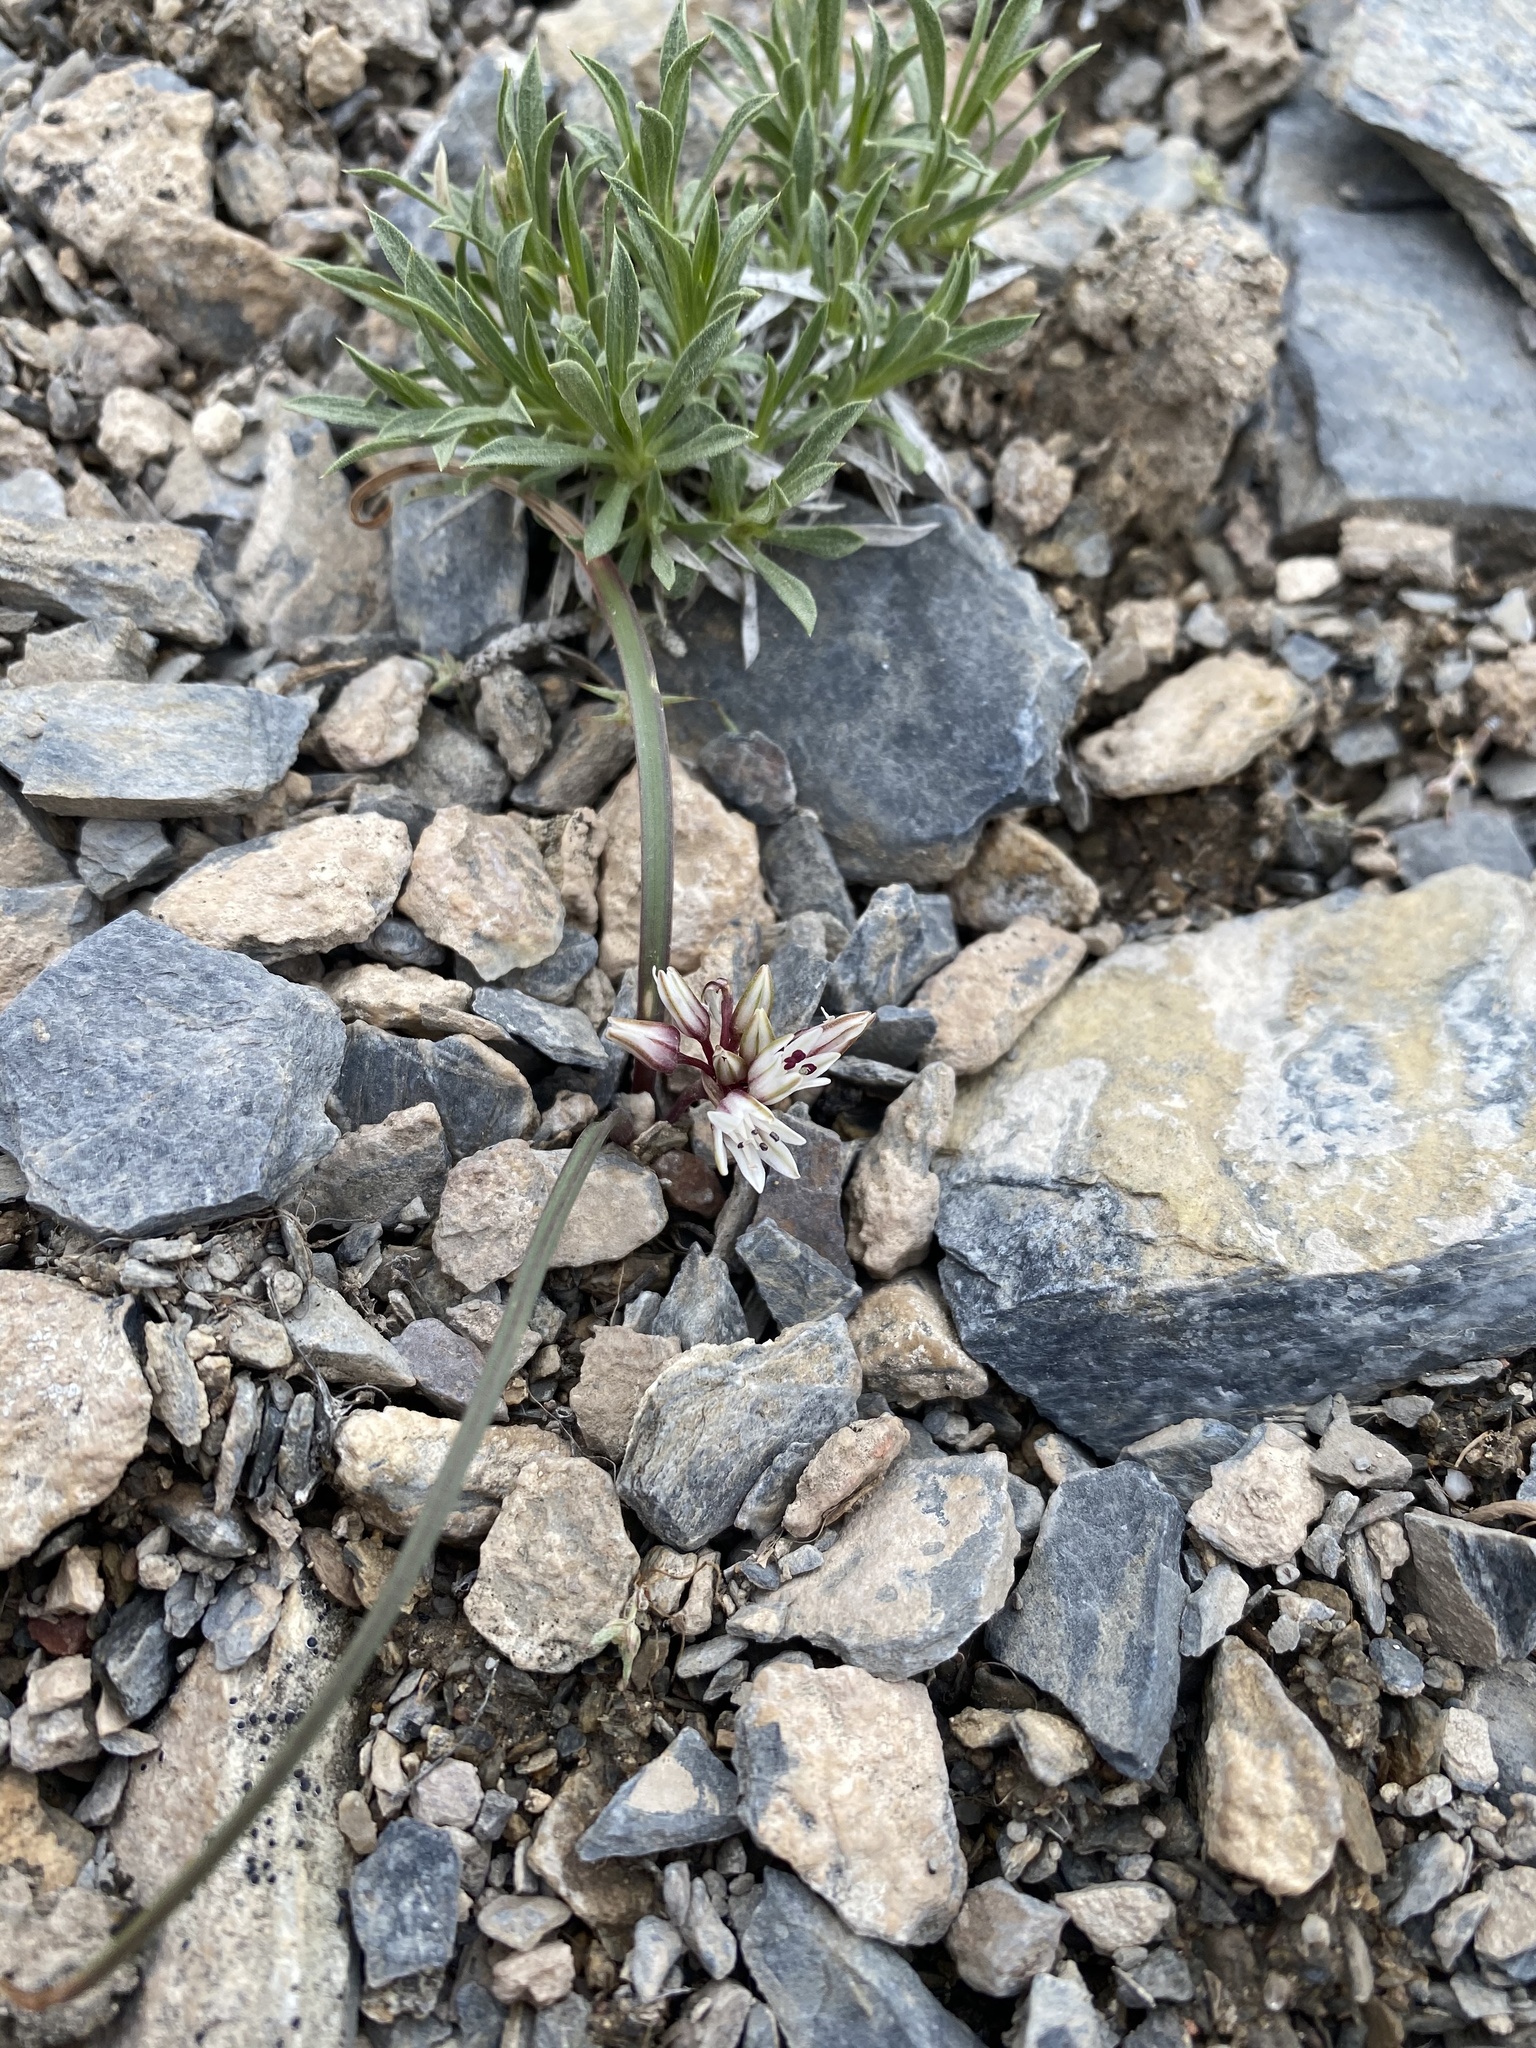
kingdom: Plantae
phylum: Tracheophyta
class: Liliopsida
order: Asparagales
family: Amaryllidaceae
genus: Allium
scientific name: Allium parvum
